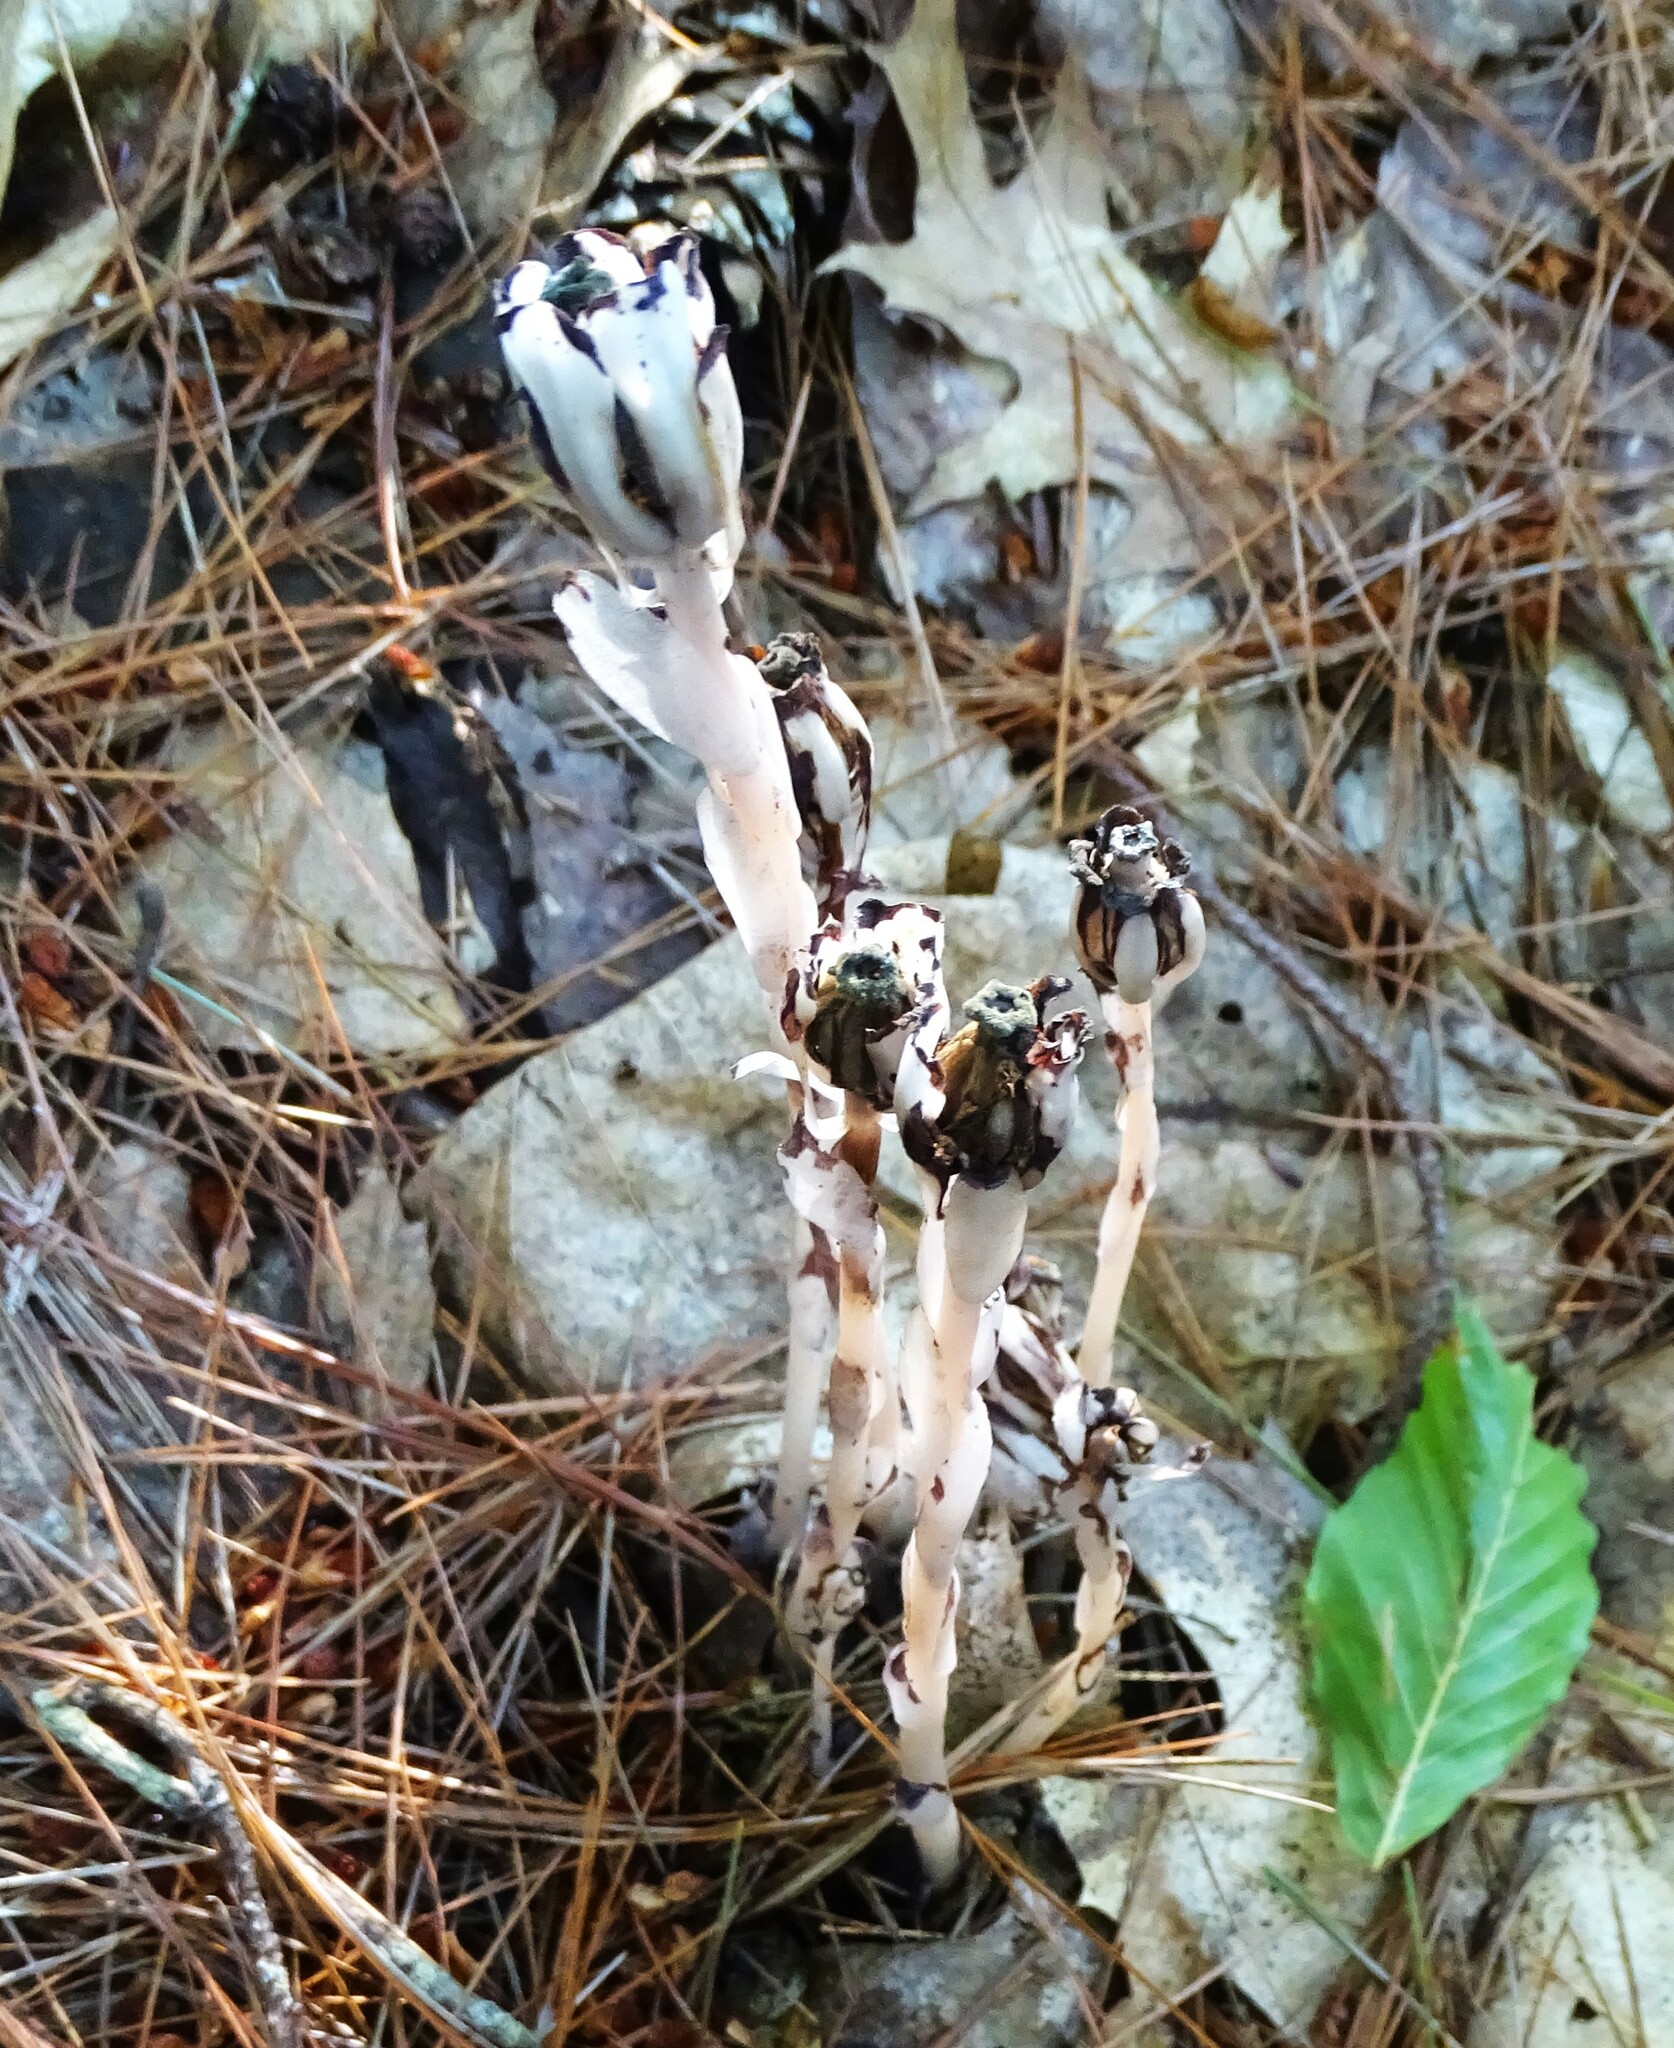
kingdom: Plantae
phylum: Tracheophyta
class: Magnoliopsida
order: Ericales
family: Ericaceae
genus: Monotropa
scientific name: Monotropa uniflora
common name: Convulsion root
